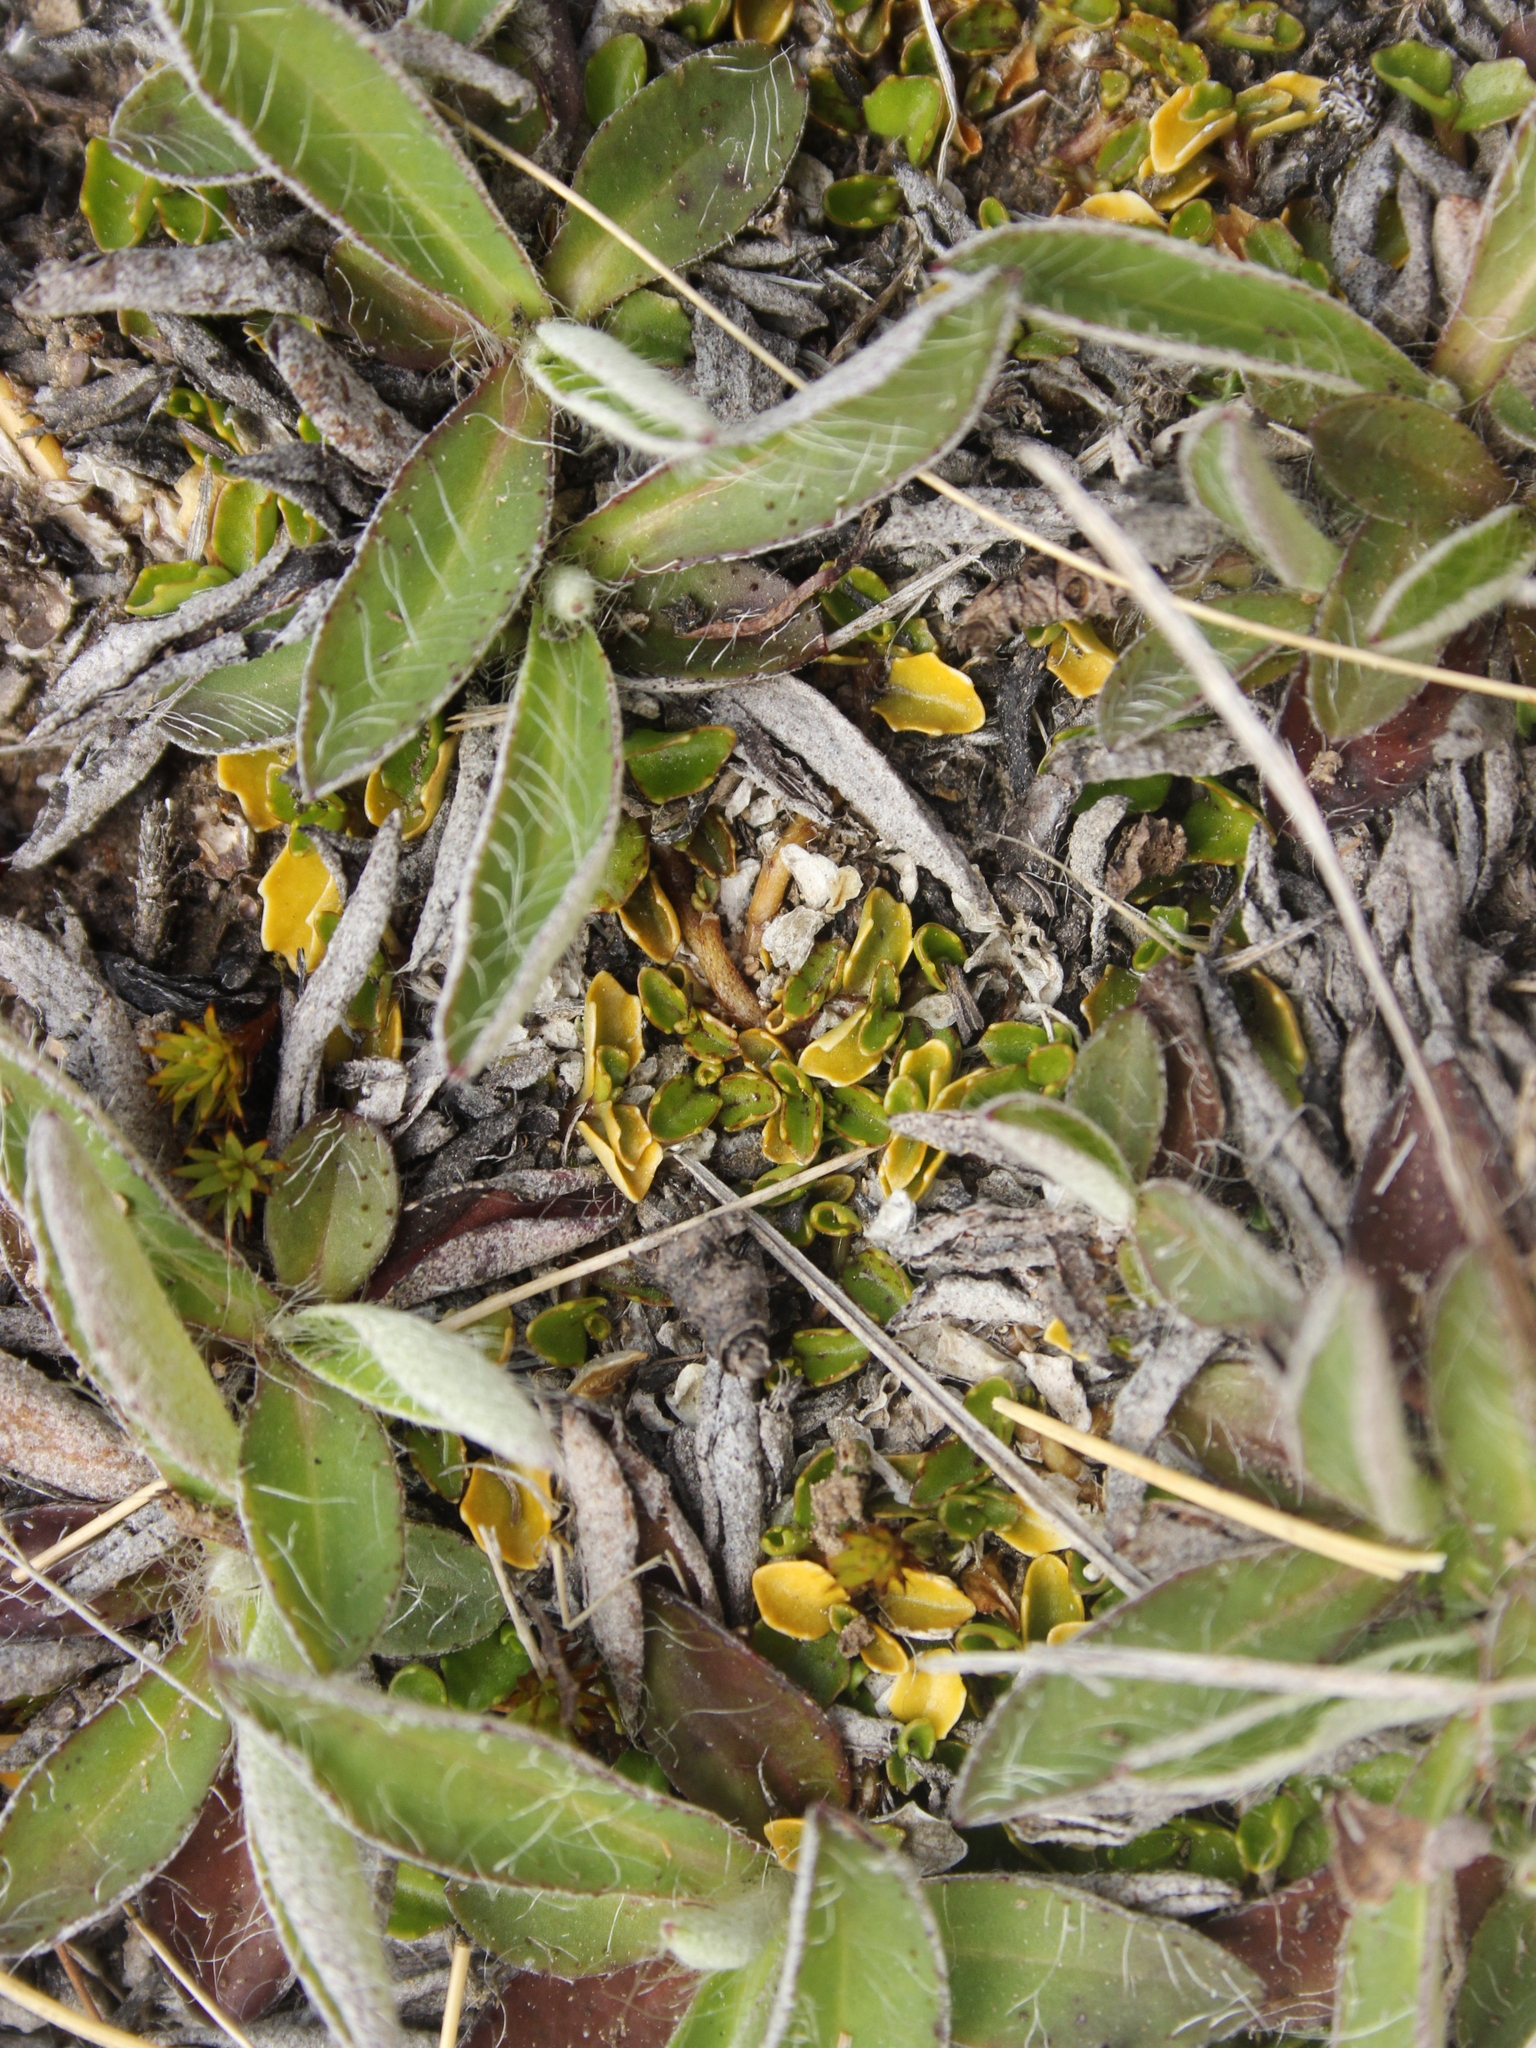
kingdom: Plantae
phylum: Tracheophyta
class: Magnoliopsida
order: Asterales
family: Campanulaceae
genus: Lobelia
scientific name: Lobelia angulata
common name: Lawn lobelia
